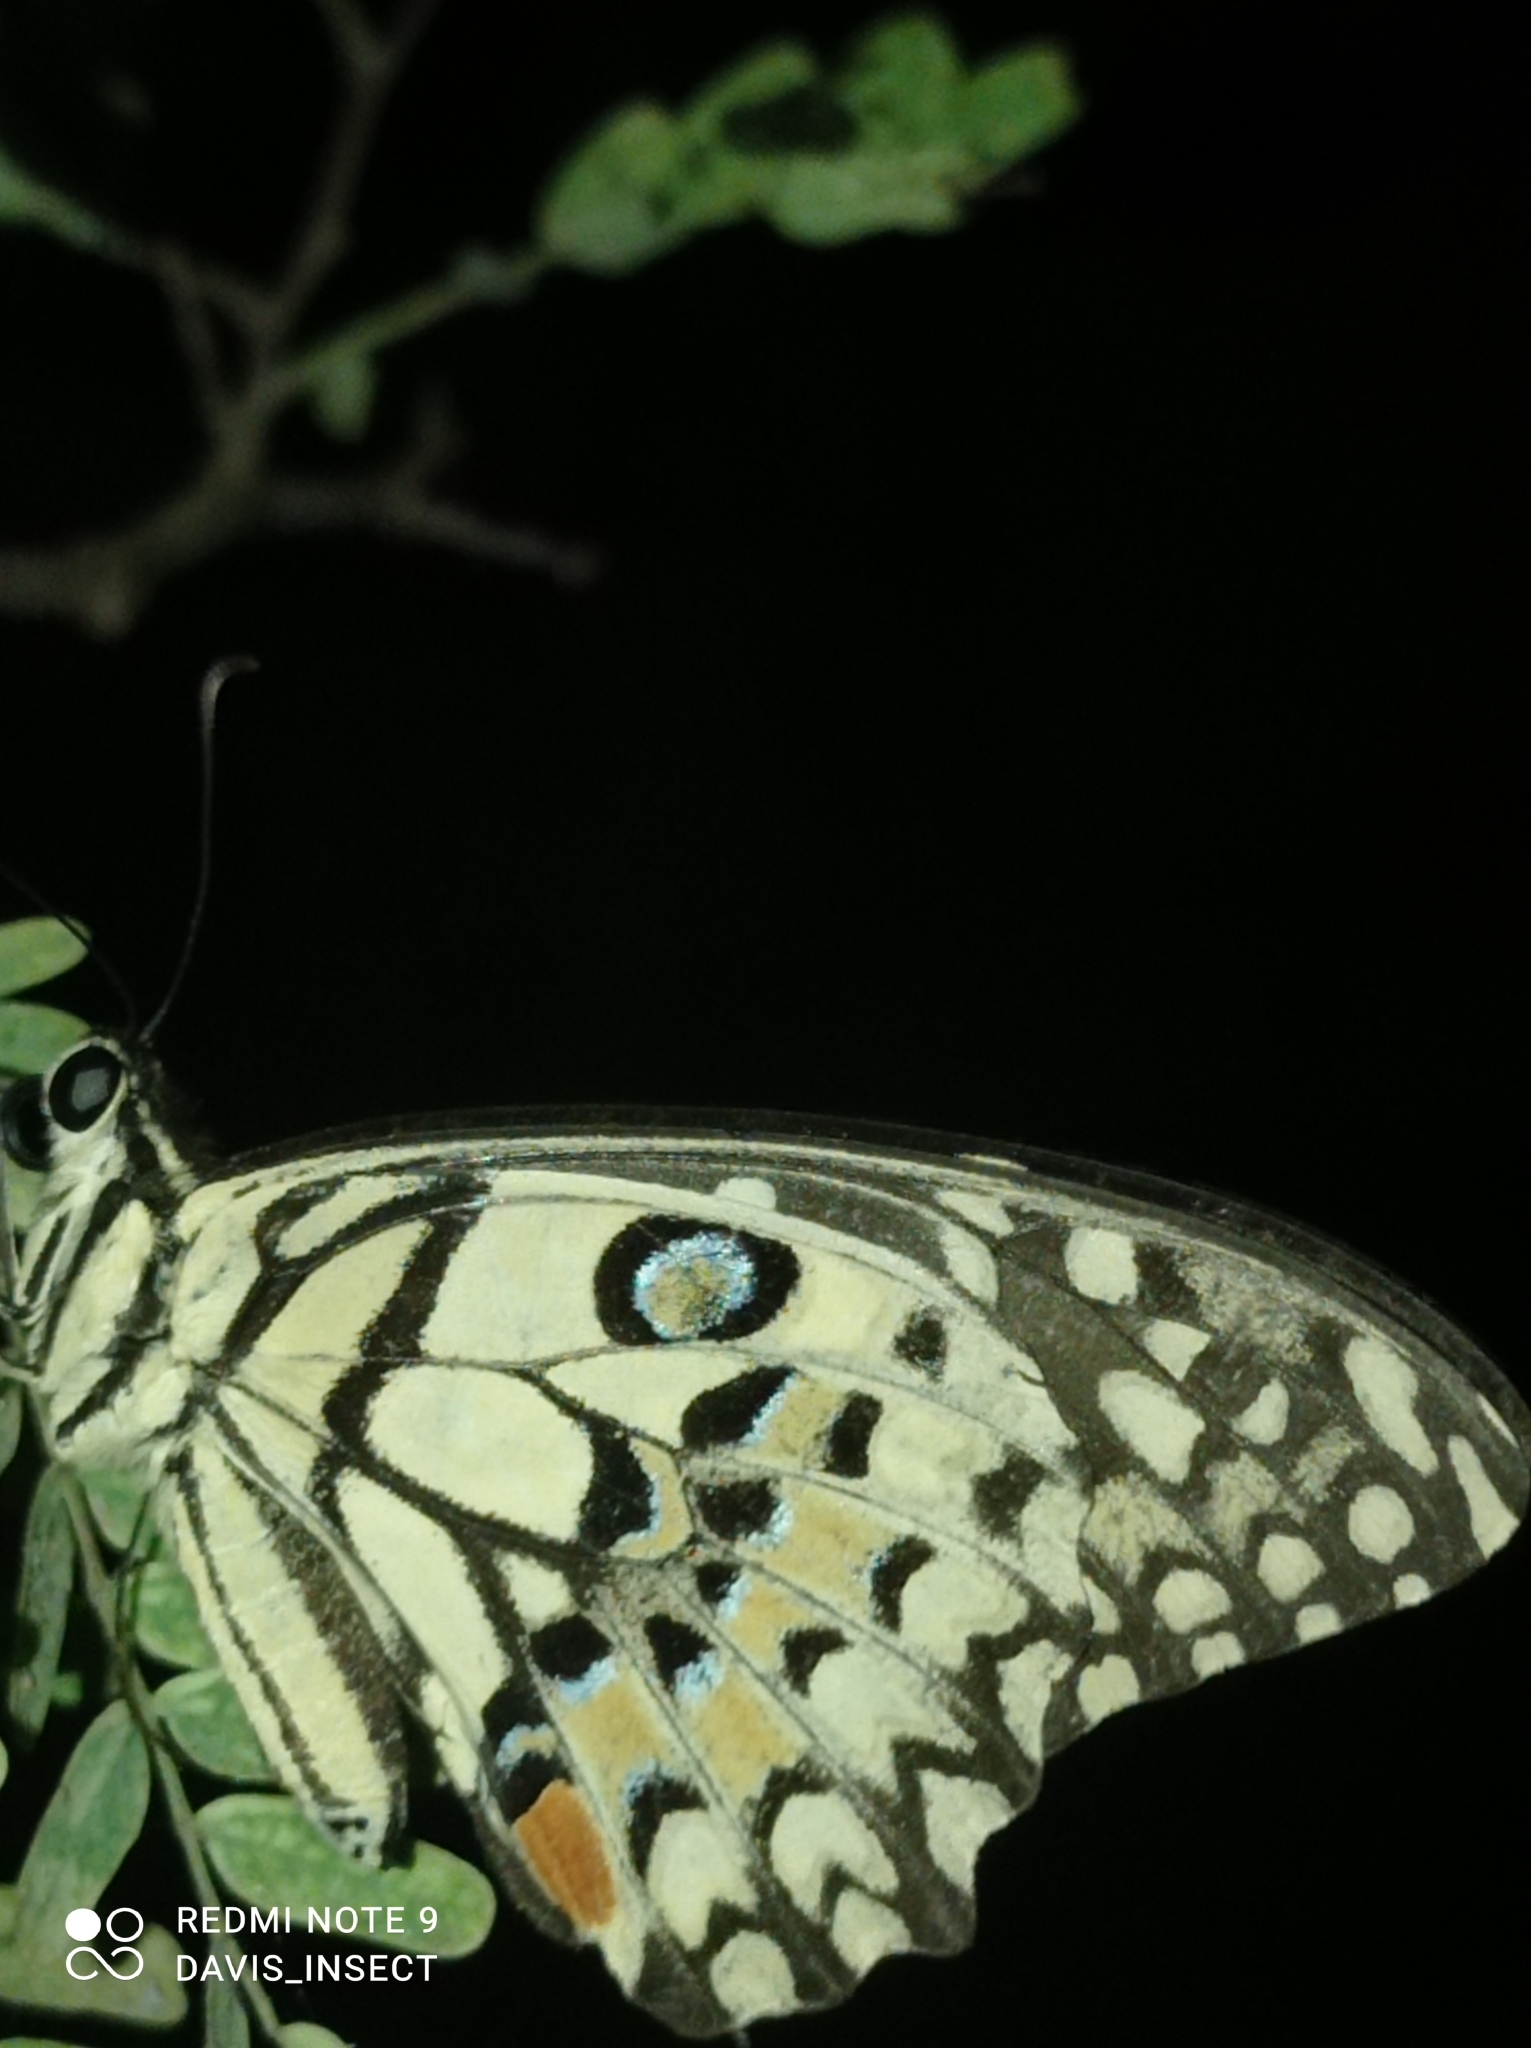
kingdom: Animalia
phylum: Arthropoda
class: Insecta
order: Lepidoptera
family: Papilionidae
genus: Papilio
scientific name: Papilio demoleus
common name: Lime butterfly
